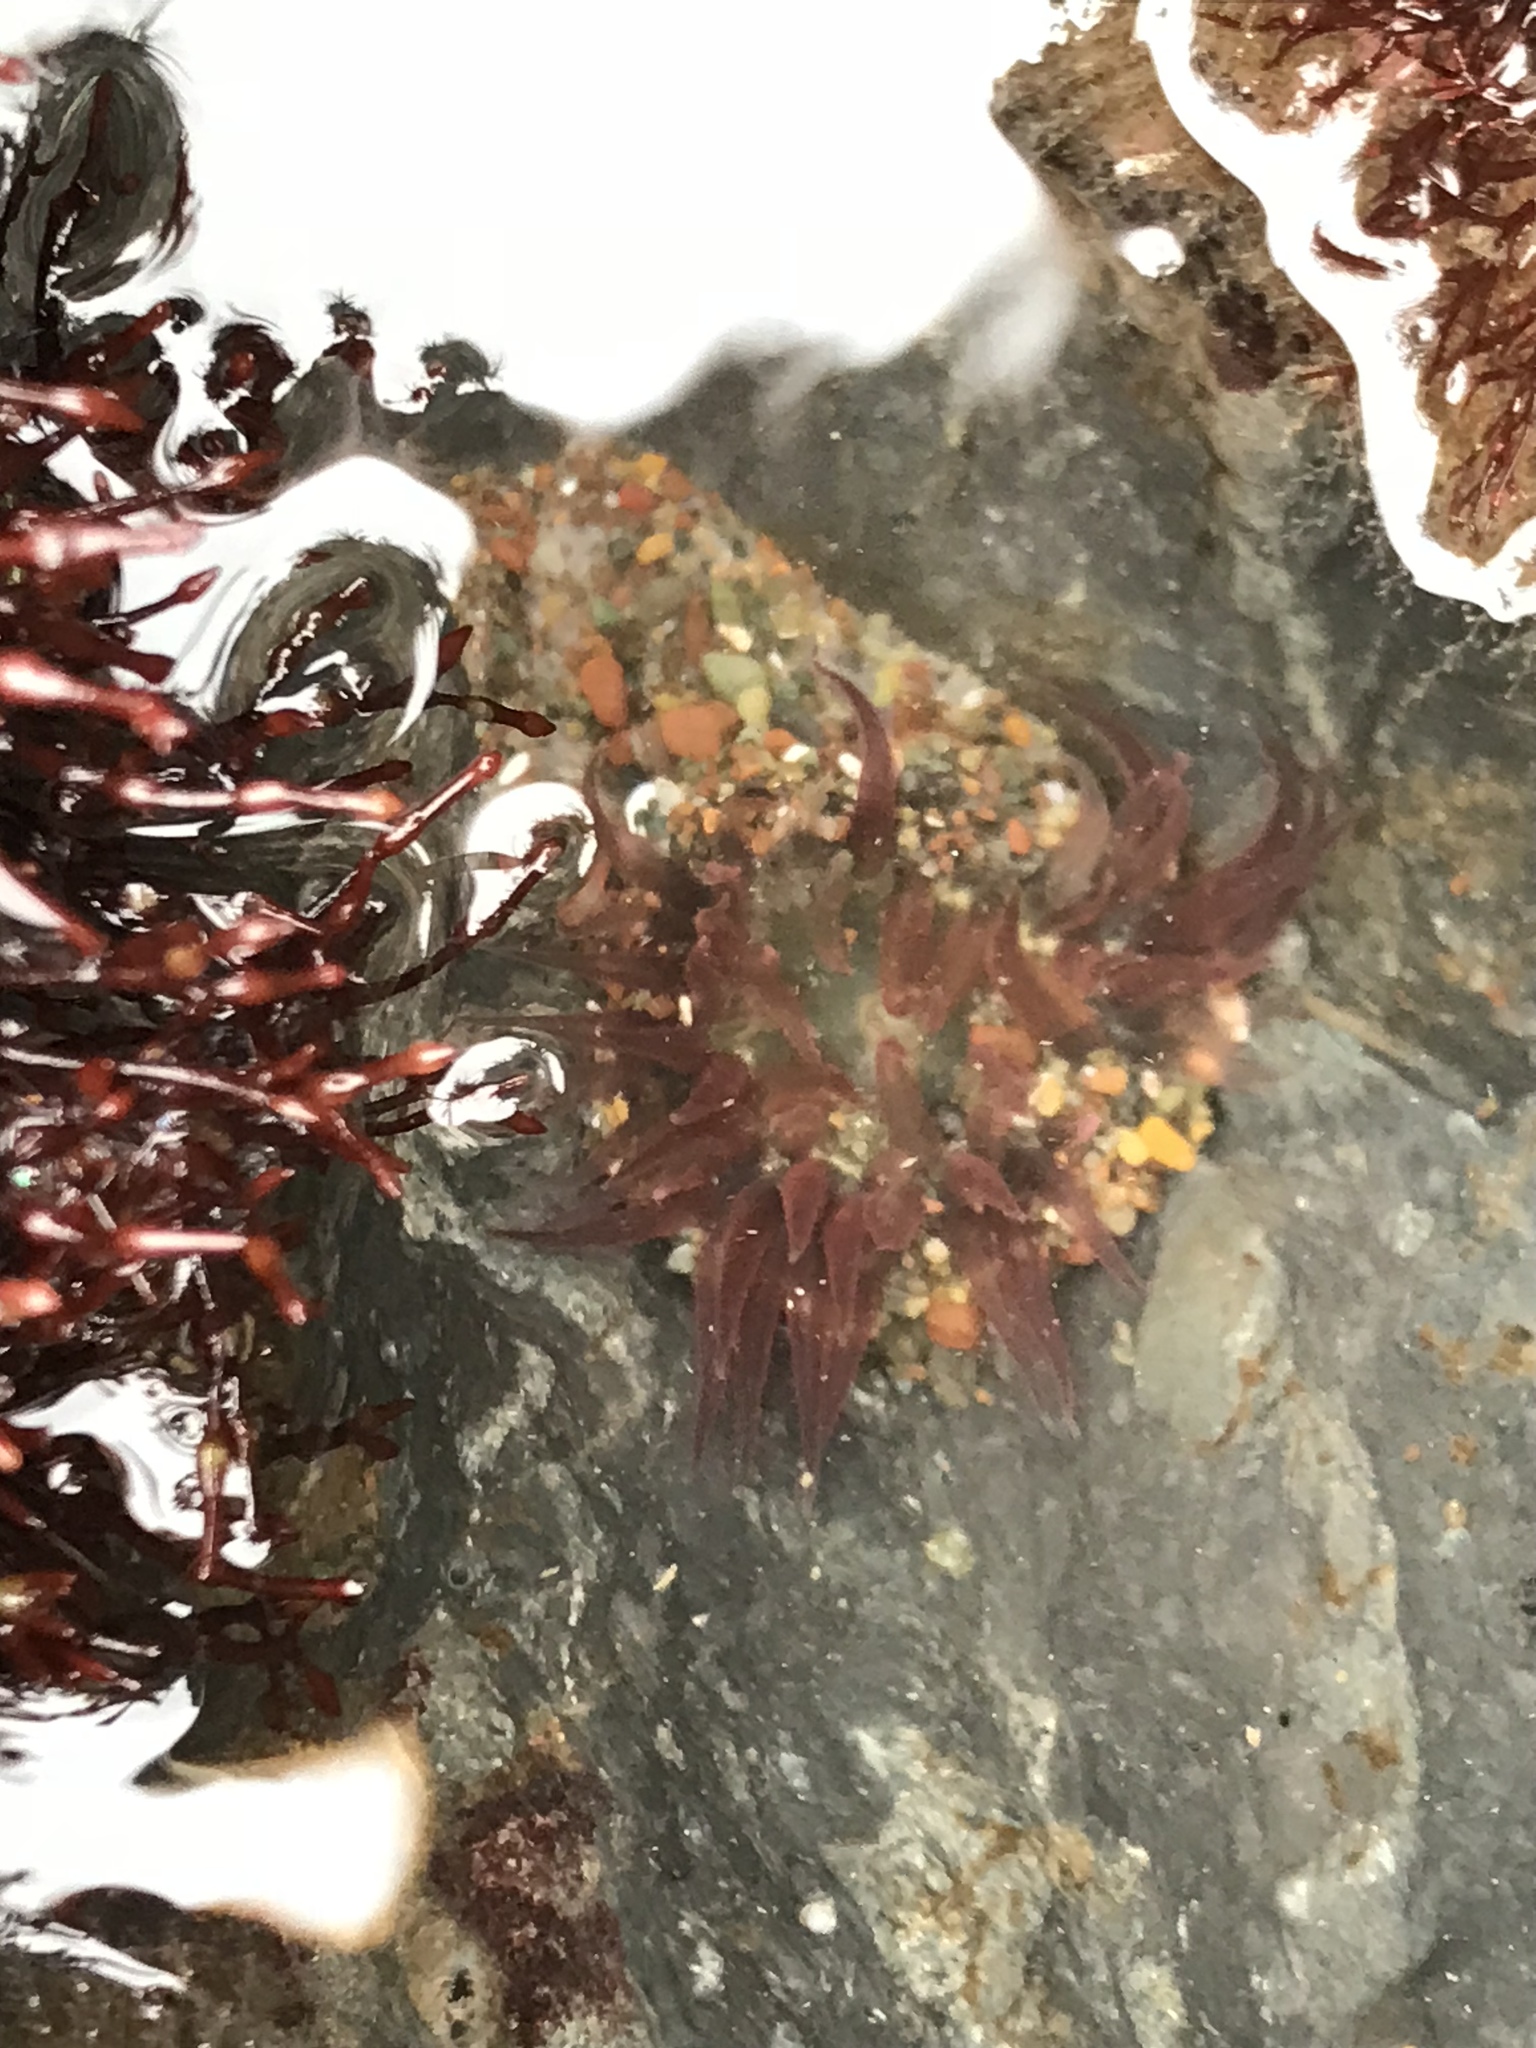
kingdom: Animalia
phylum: Cnidaria
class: Anthozoa
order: Actiniaria
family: Actiniidae
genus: Anthopleura
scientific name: Anthopleura artemisia
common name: Buried sea anemone
